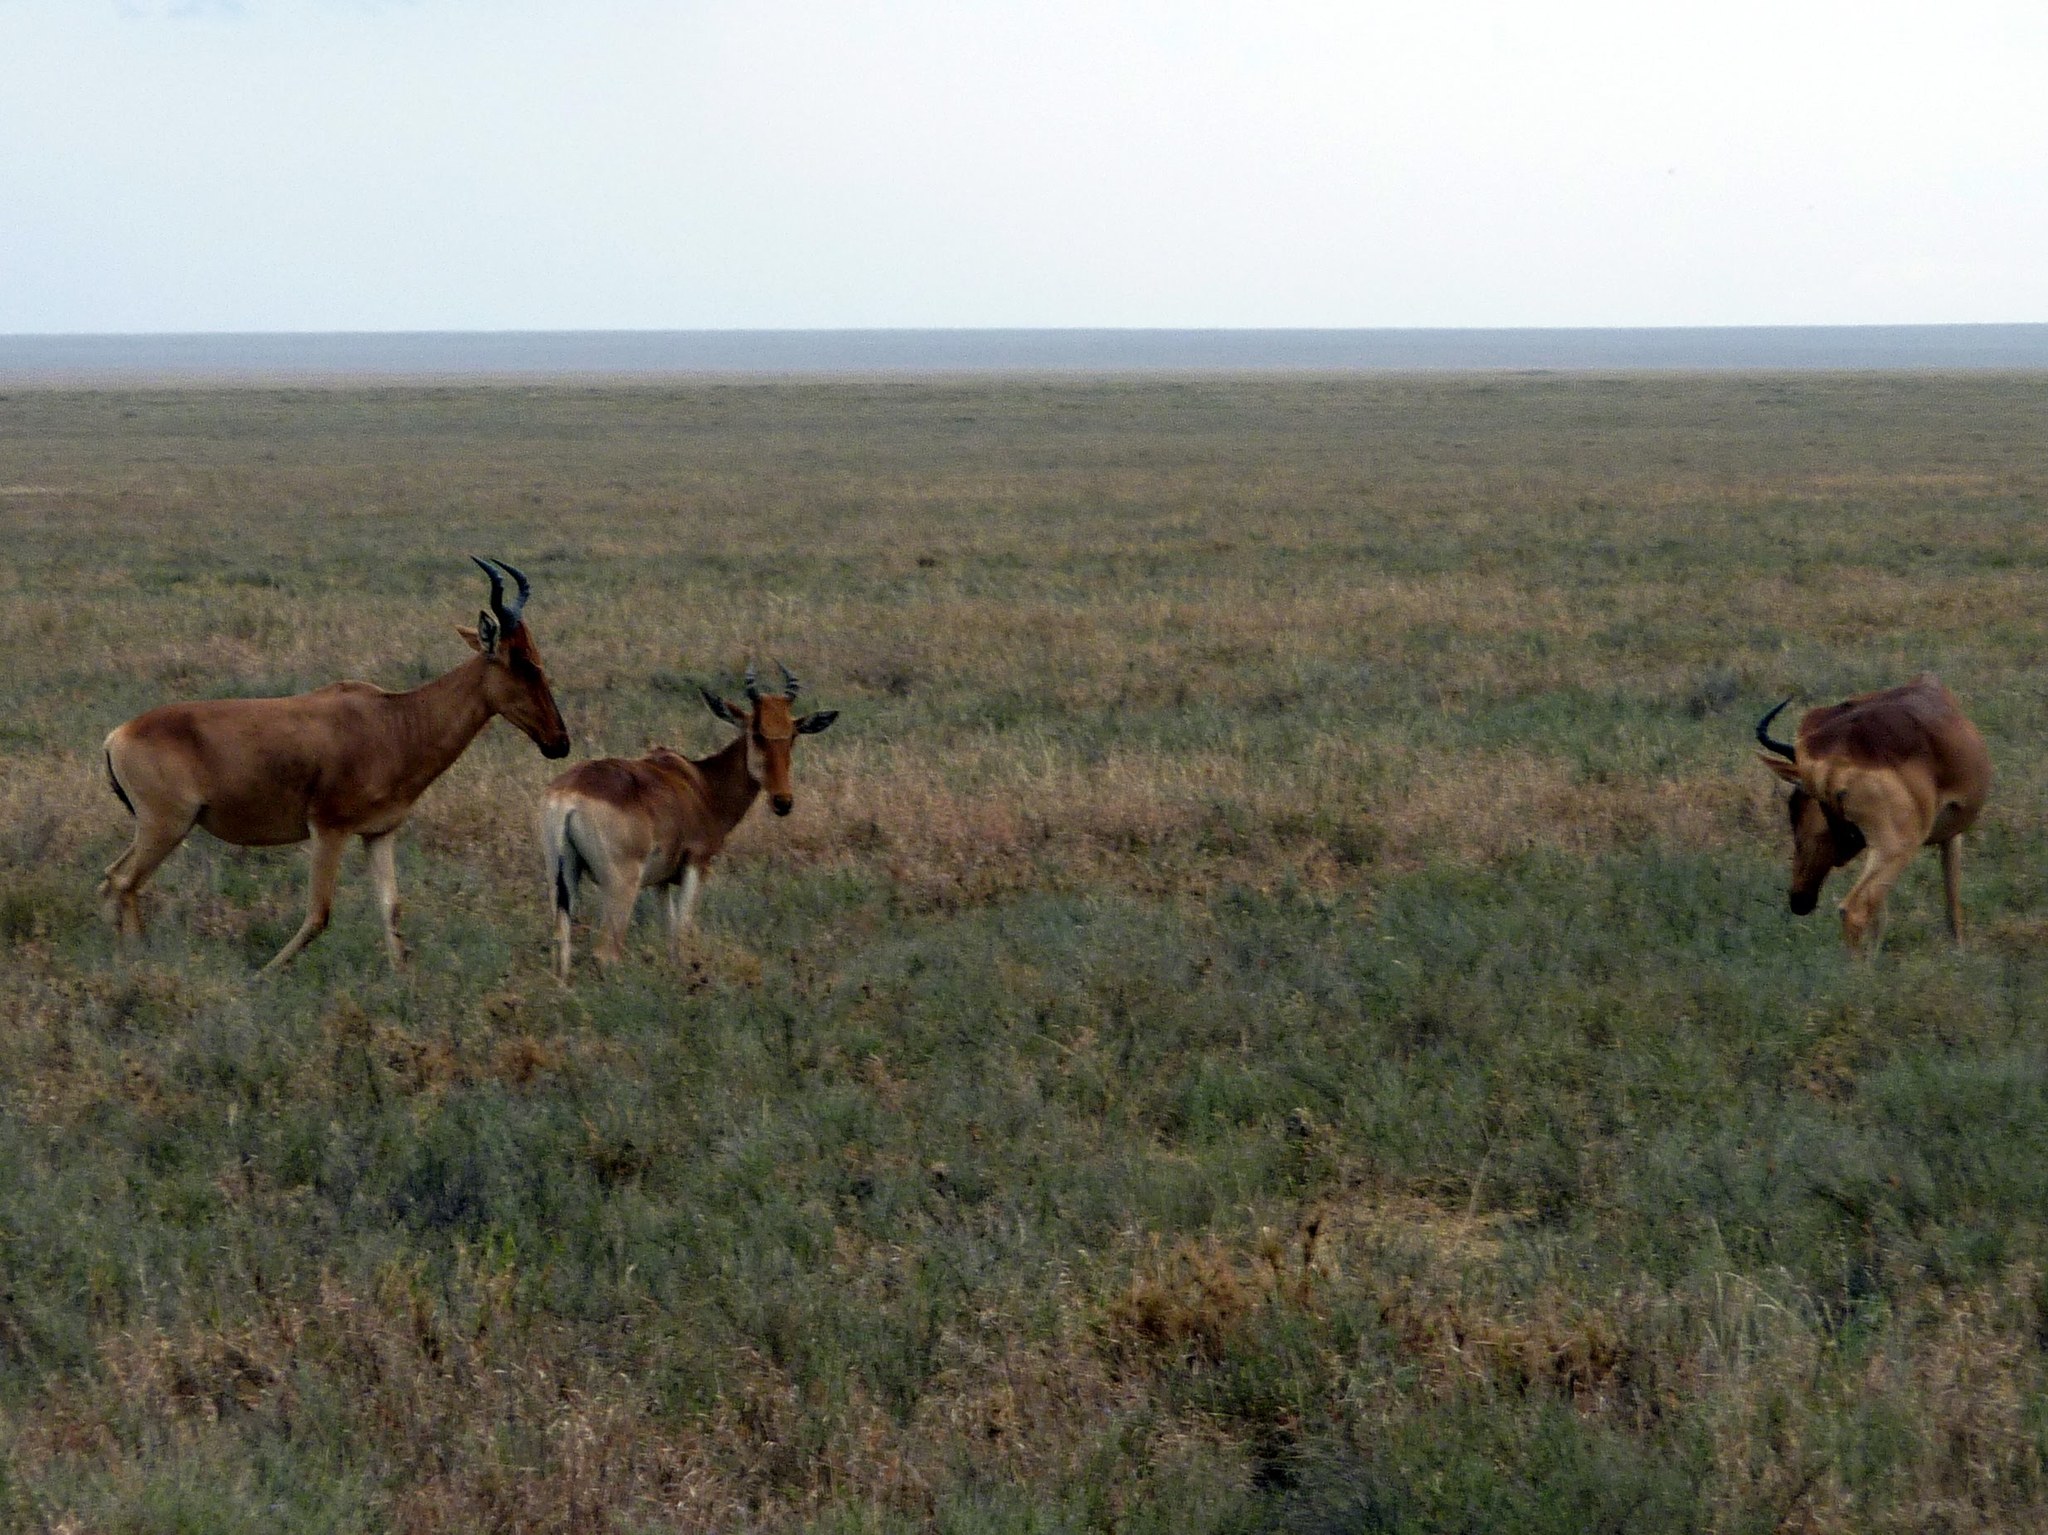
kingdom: Animalia
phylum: Chordata
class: Mammalia
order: Artiodactyla
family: Bovidae
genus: Alcelaphus
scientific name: Alcelaphus buselaphus
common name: Hartebeest
